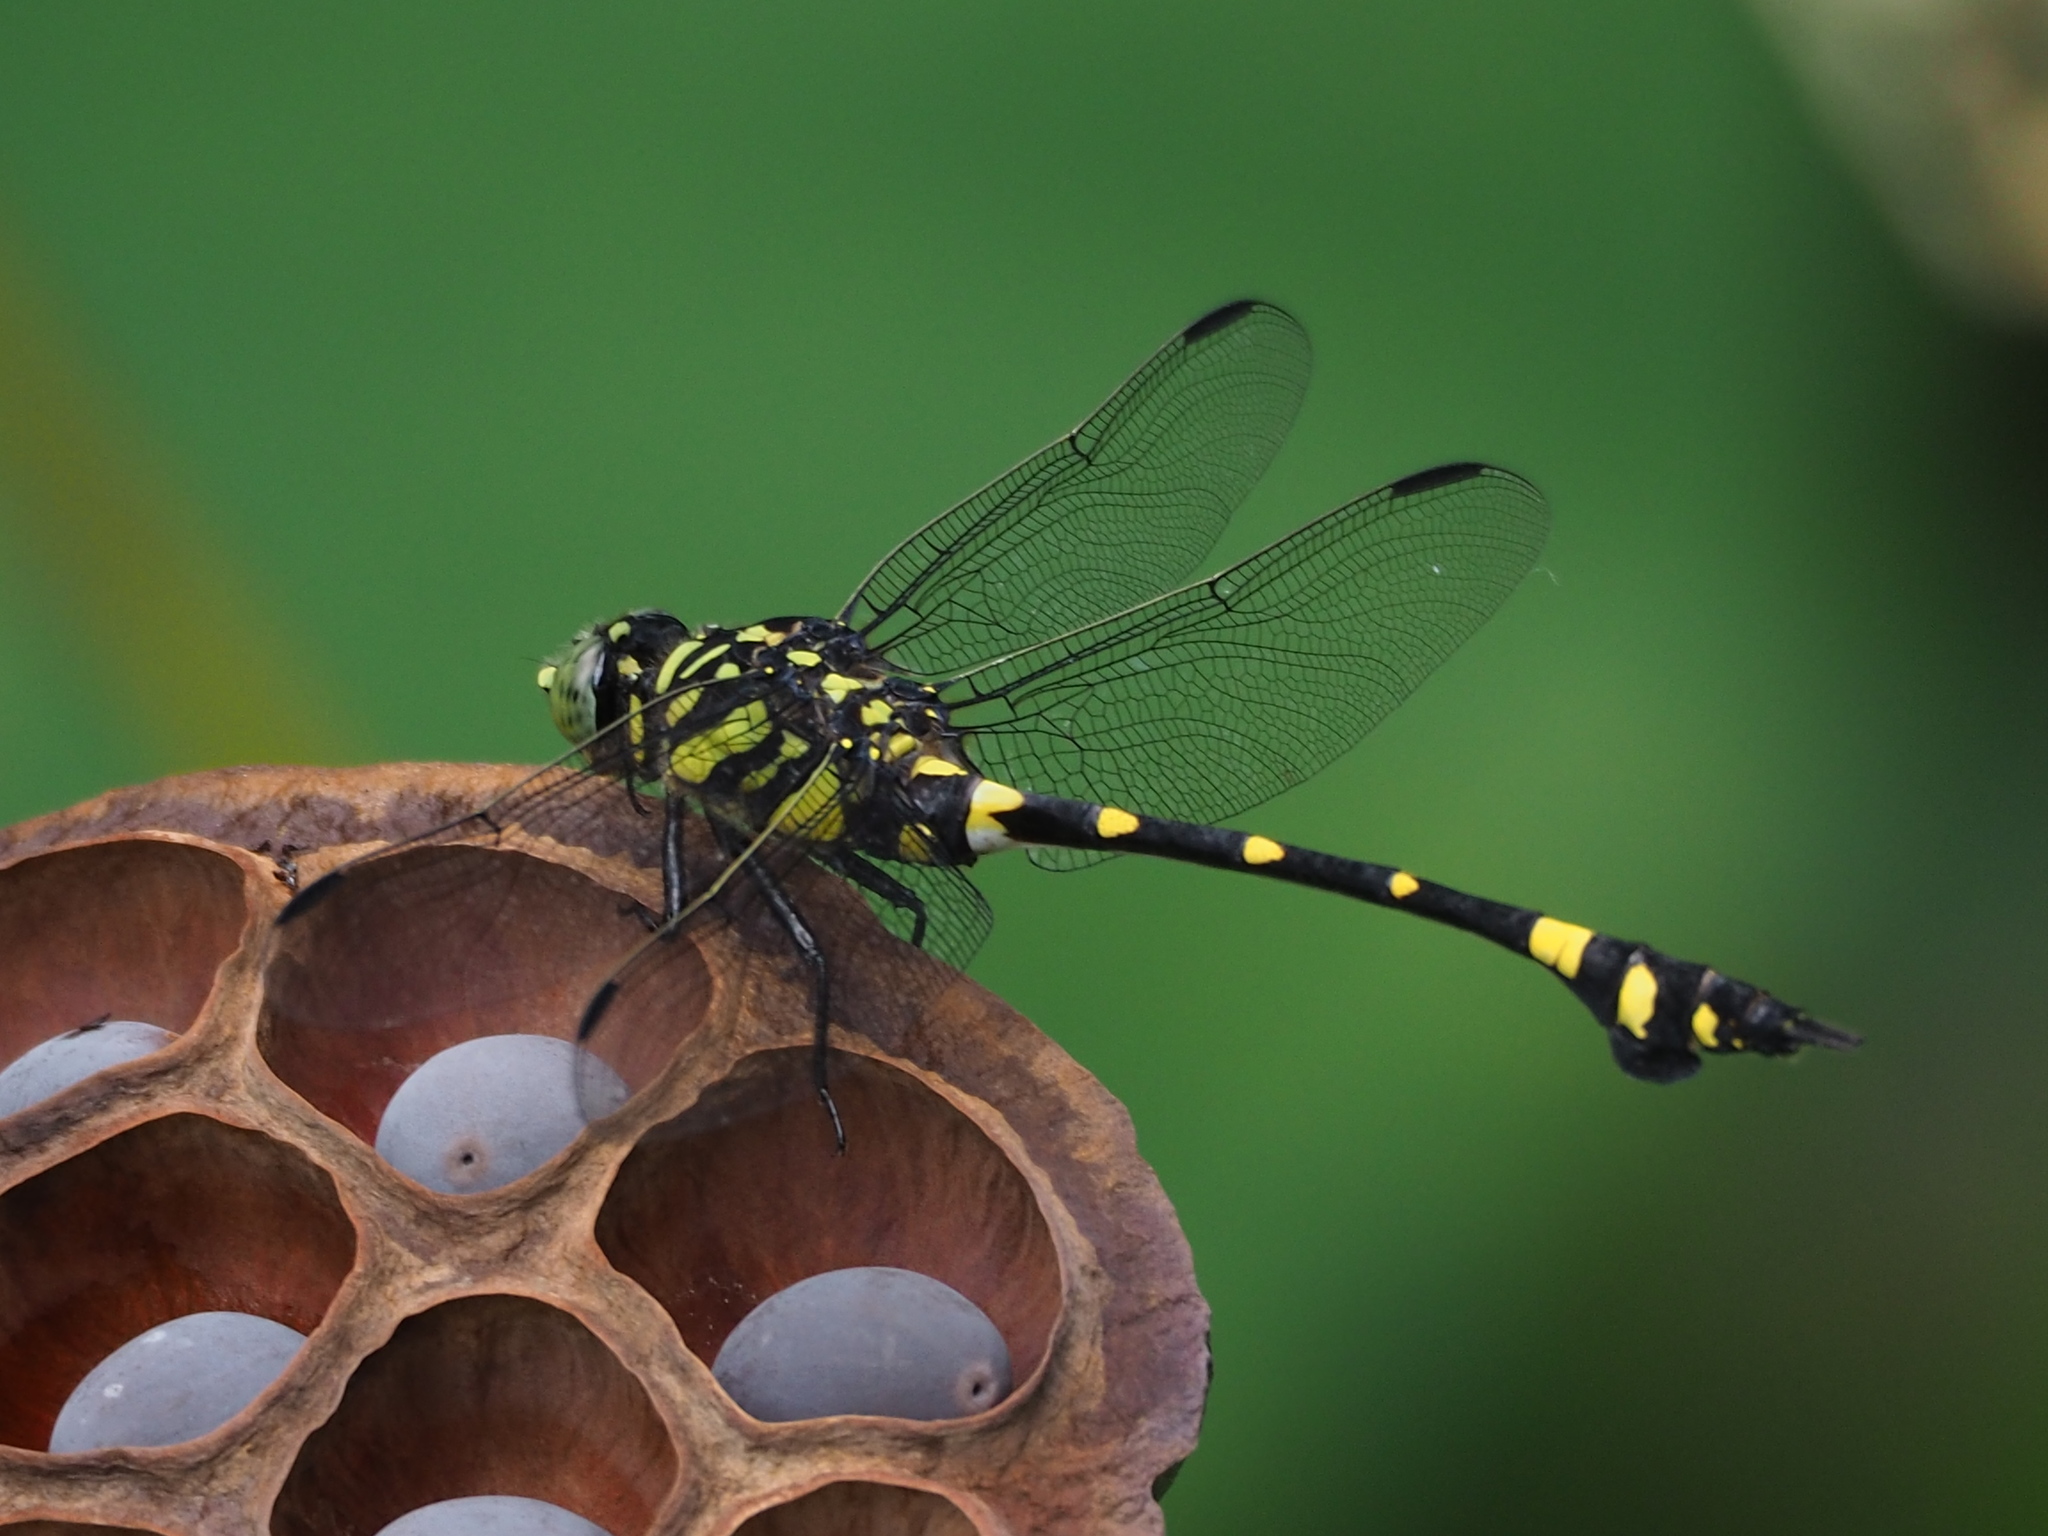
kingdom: Animalia
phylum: Arthropoda
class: Insecta
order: Odonata
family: Gomphidae
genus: Ictinogomphus
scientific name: Ictinogomphus rapax
